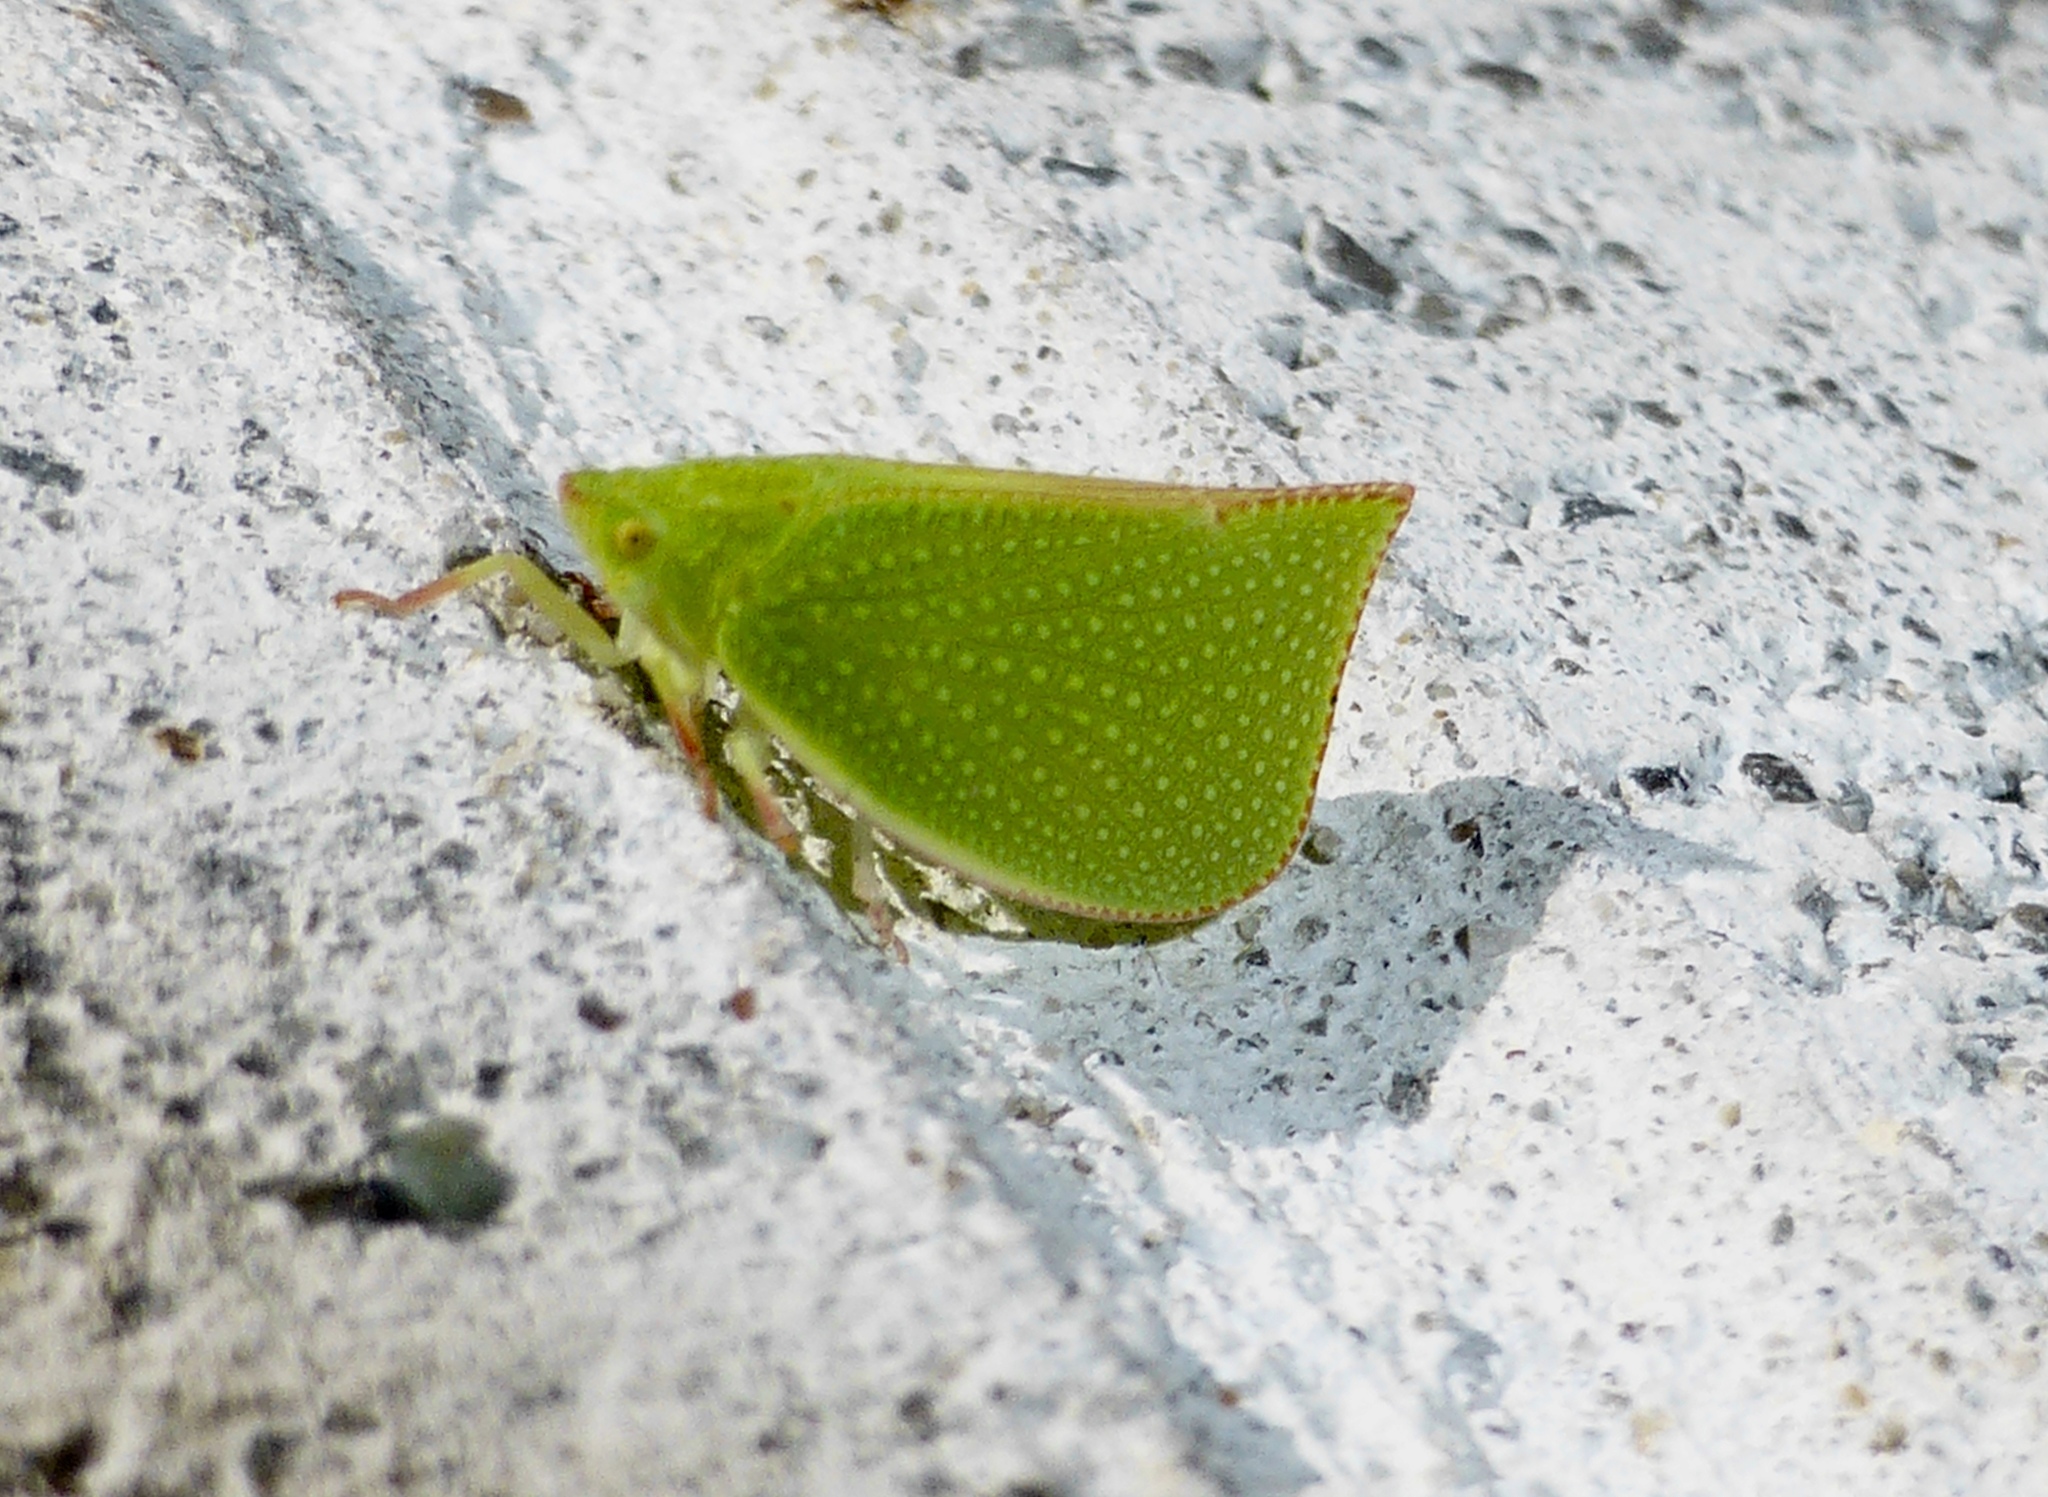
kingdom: Animalia
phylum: Arthropoda
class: Insecta
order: Hemiptera
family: Flatidae
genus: Siphanta
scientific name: Siphanta acuta
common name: Torpedo bug
